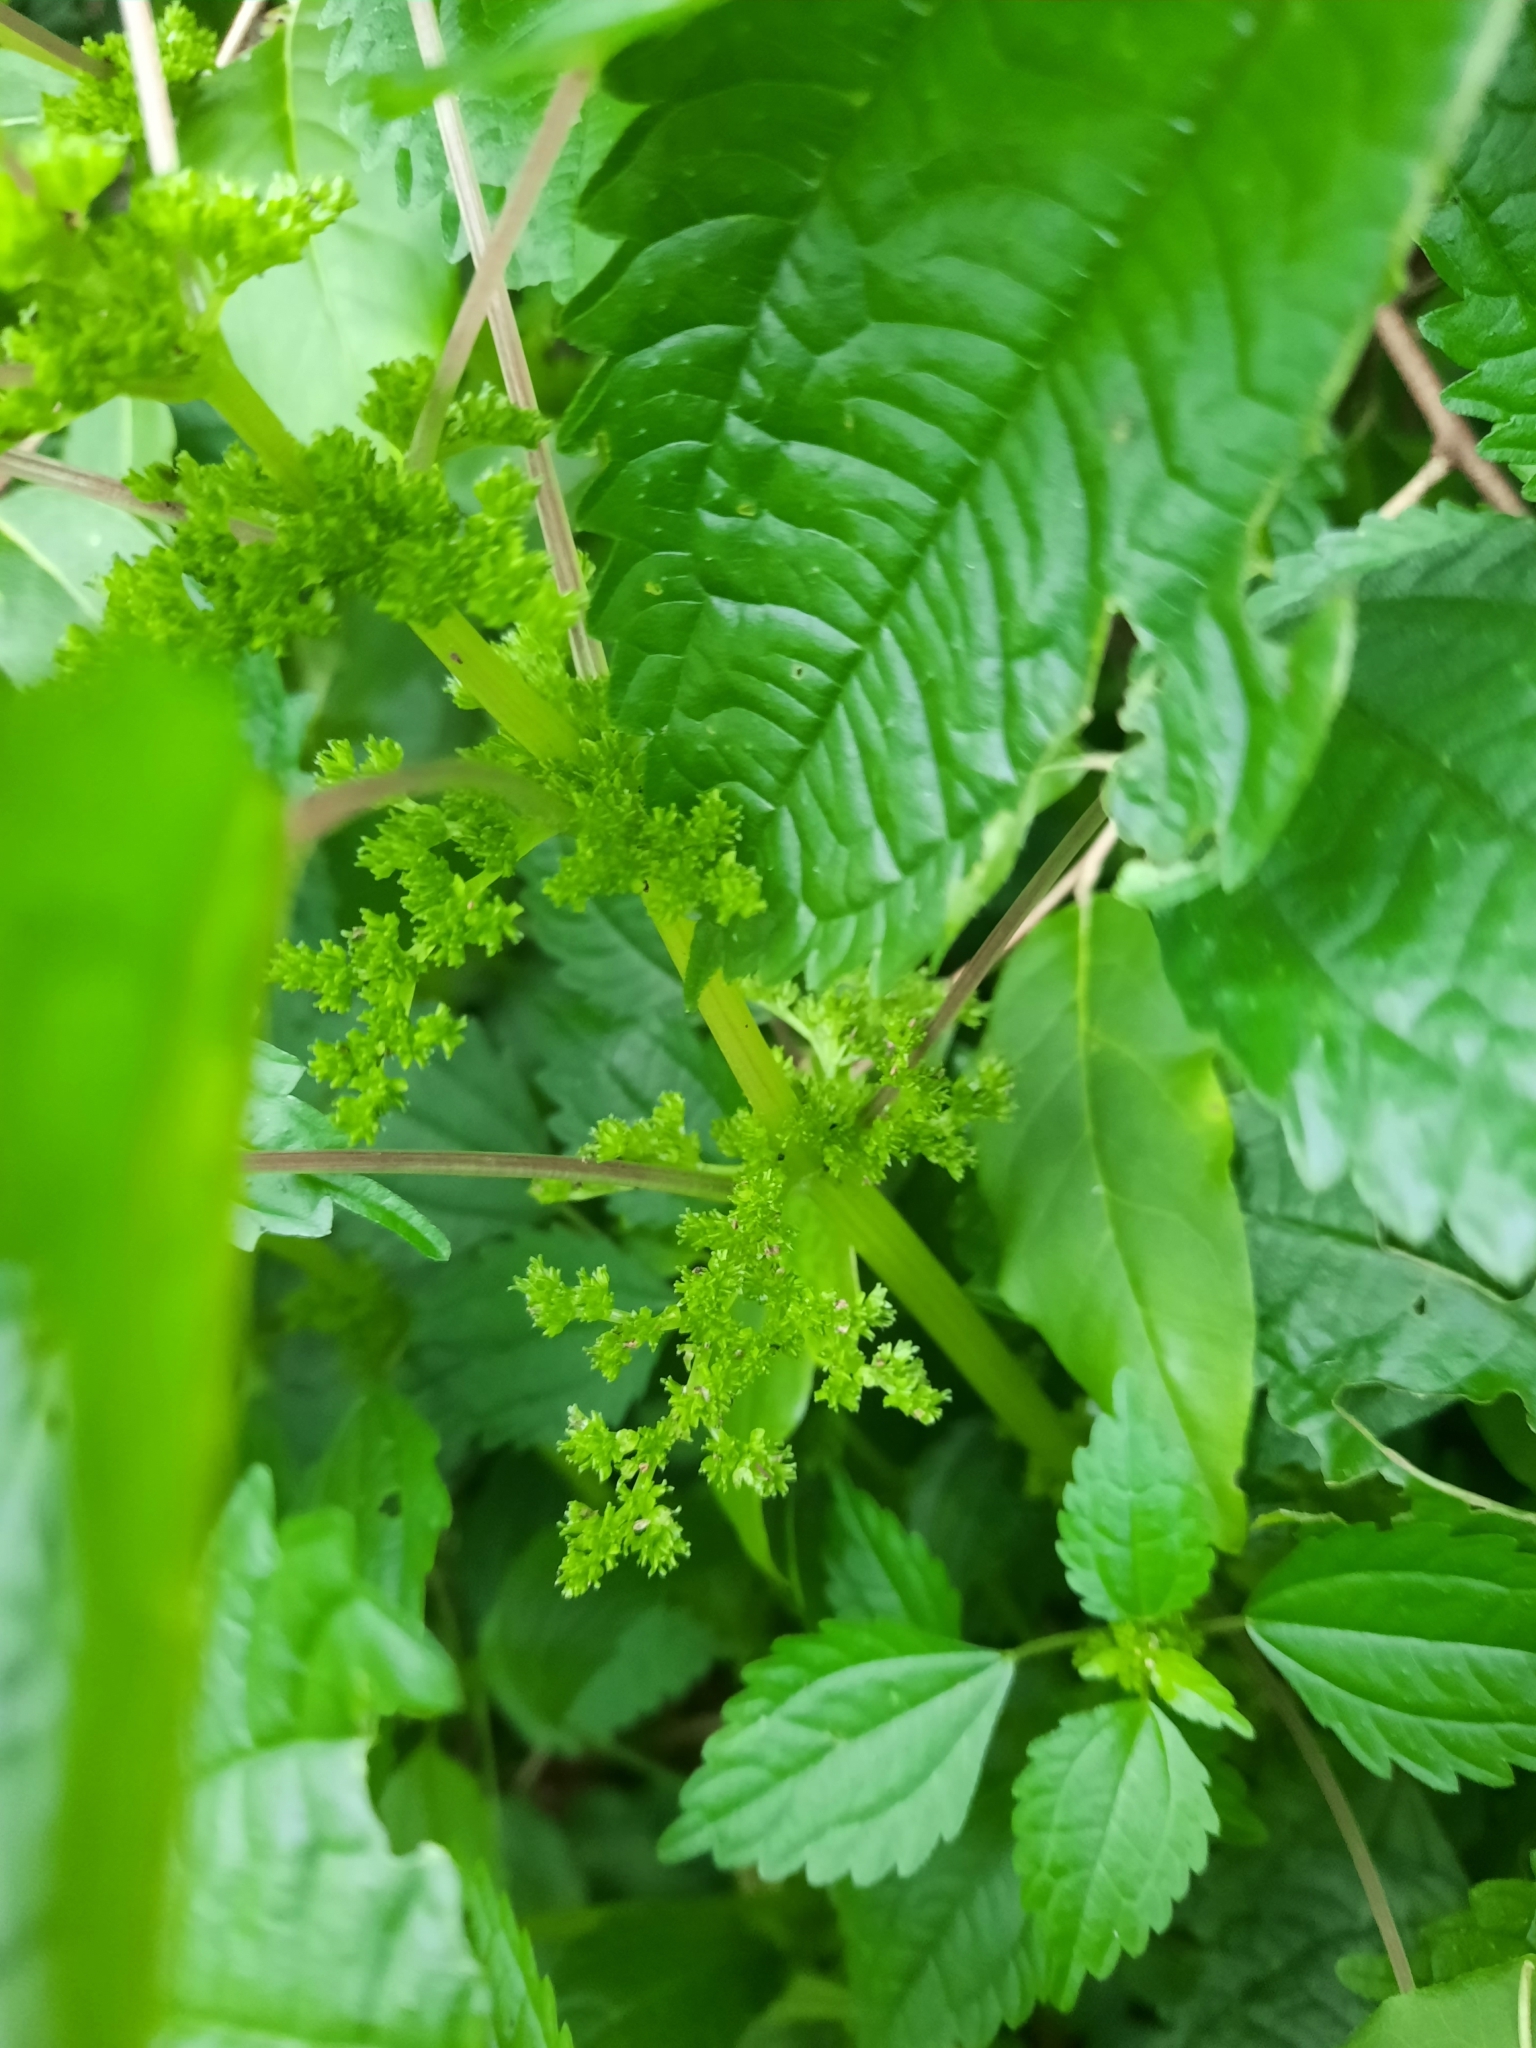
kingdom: Plantae
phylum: Tracheophyta
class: Magnoliopsida
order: Rosales
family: Urticaceae
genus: Pilea
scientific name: Pilea pumila
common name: Clearweed
